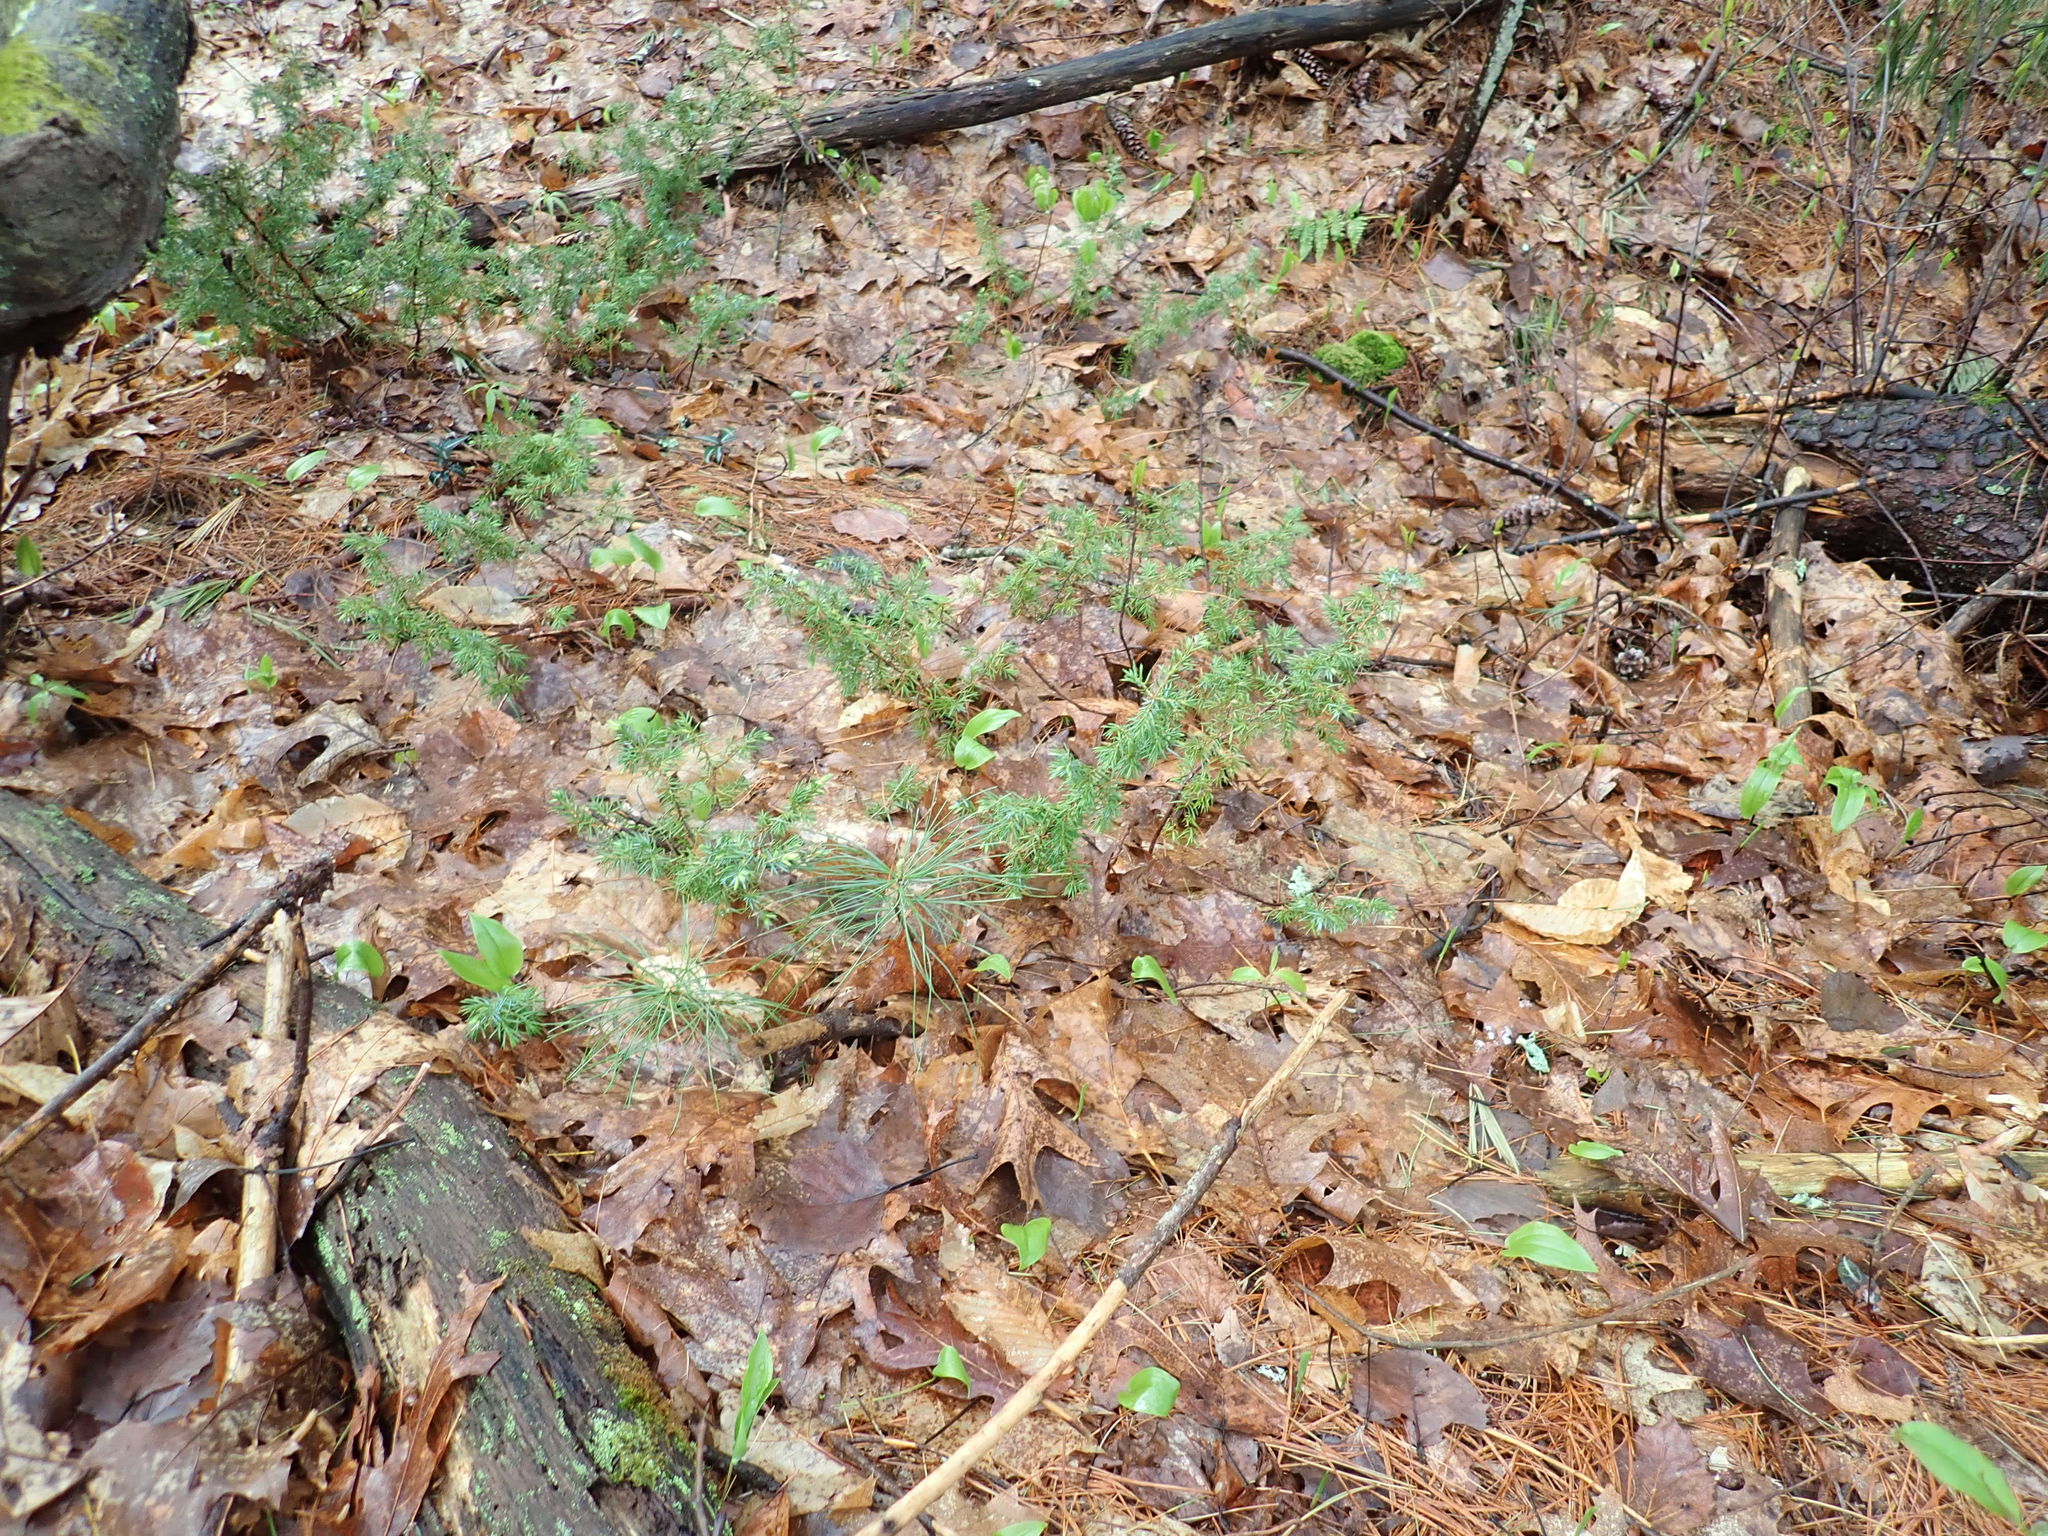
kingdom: Plantae
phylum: Tracheophyta
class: Pinopsida
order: Pinales
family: Cupressaceae
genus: Juniperus
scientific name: Juniperus communis
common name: Common juniper
